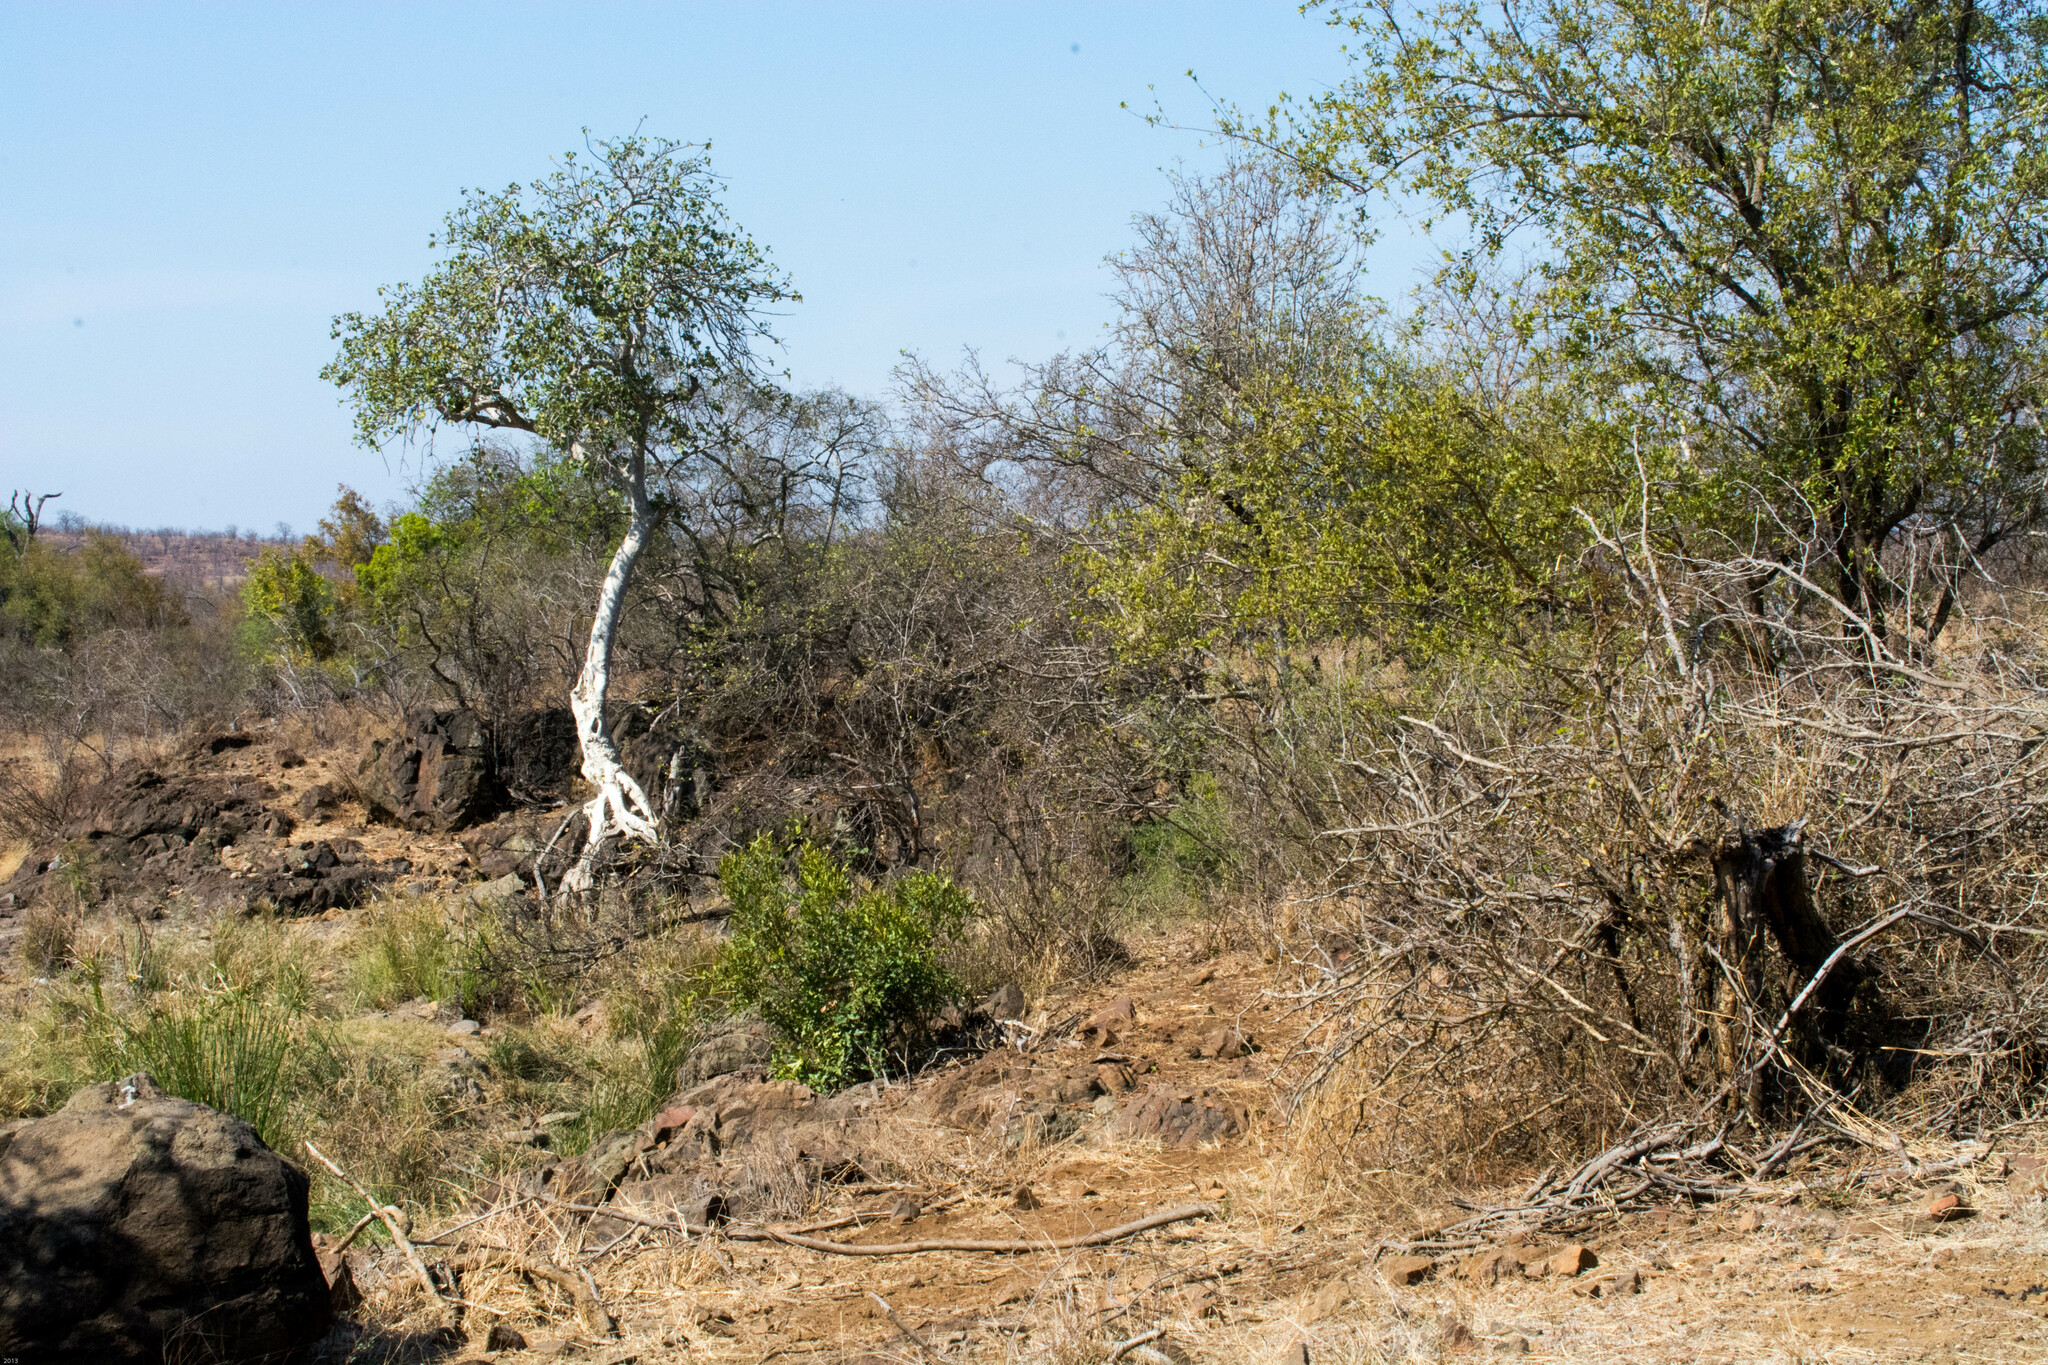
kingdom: Plantae
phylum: Tracheophyta
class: Magnoliopsida
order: Rosales
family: Moraceae
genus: Ficus
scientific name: Ficus abutilifolia
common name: Large-leaved rock fig
